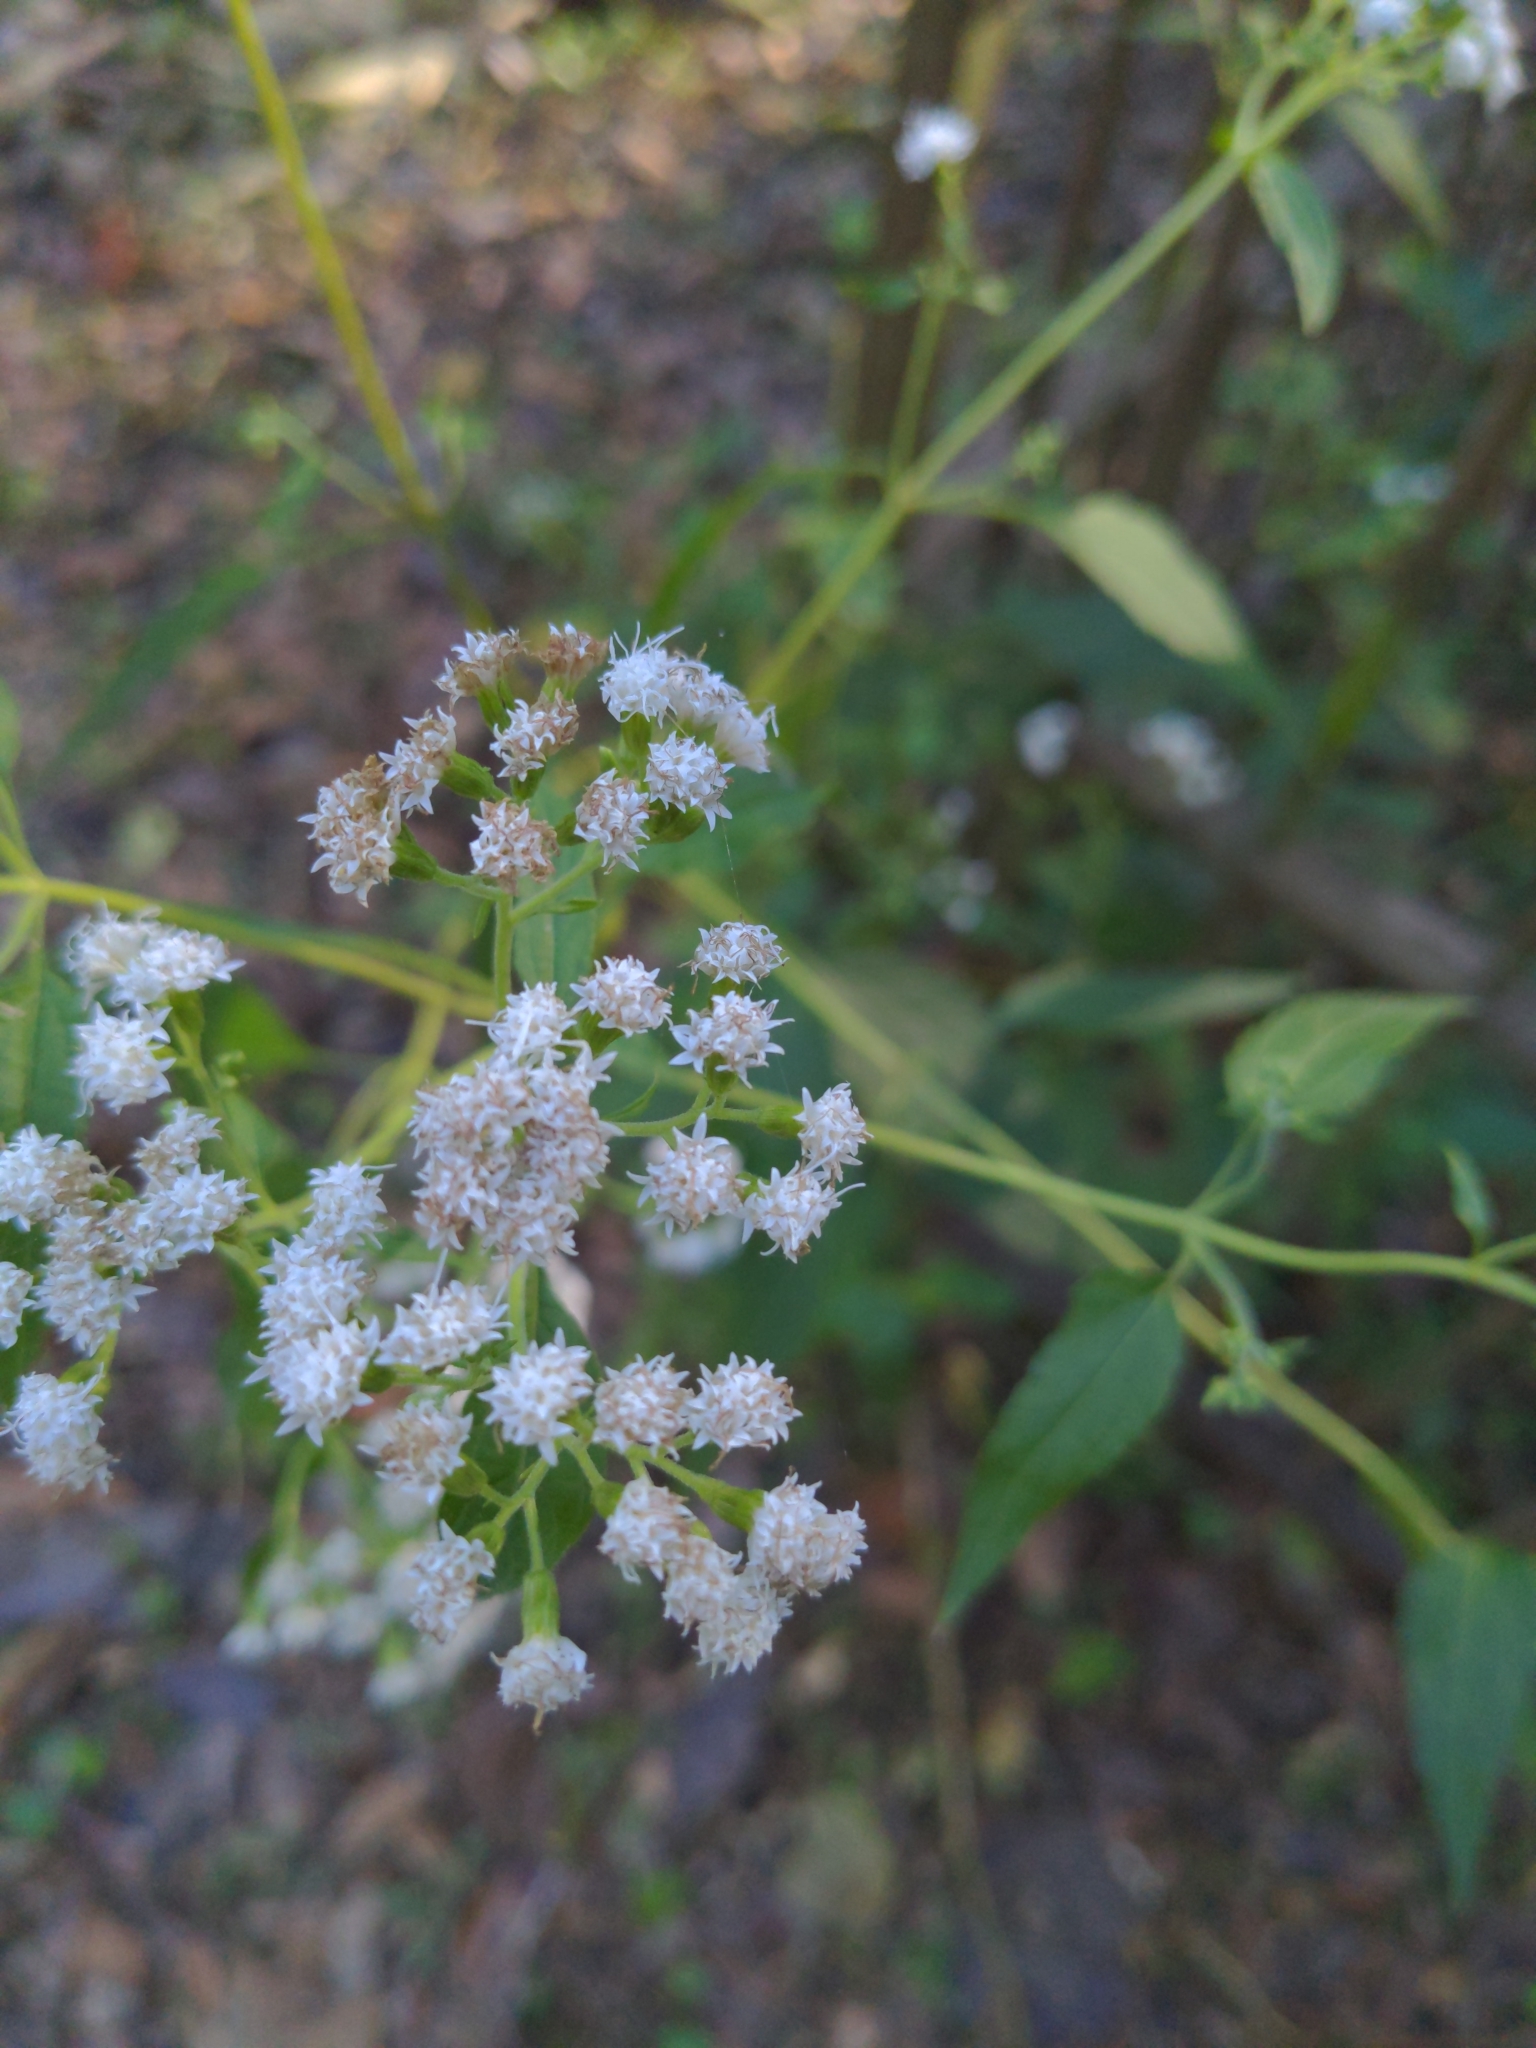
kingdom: Plantae
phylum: Tracheophyta
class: Magnoliopsida
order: Asterales
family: Asteraceae
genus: Ageratina
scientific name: Ageratina altissima
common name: White snakeroot
